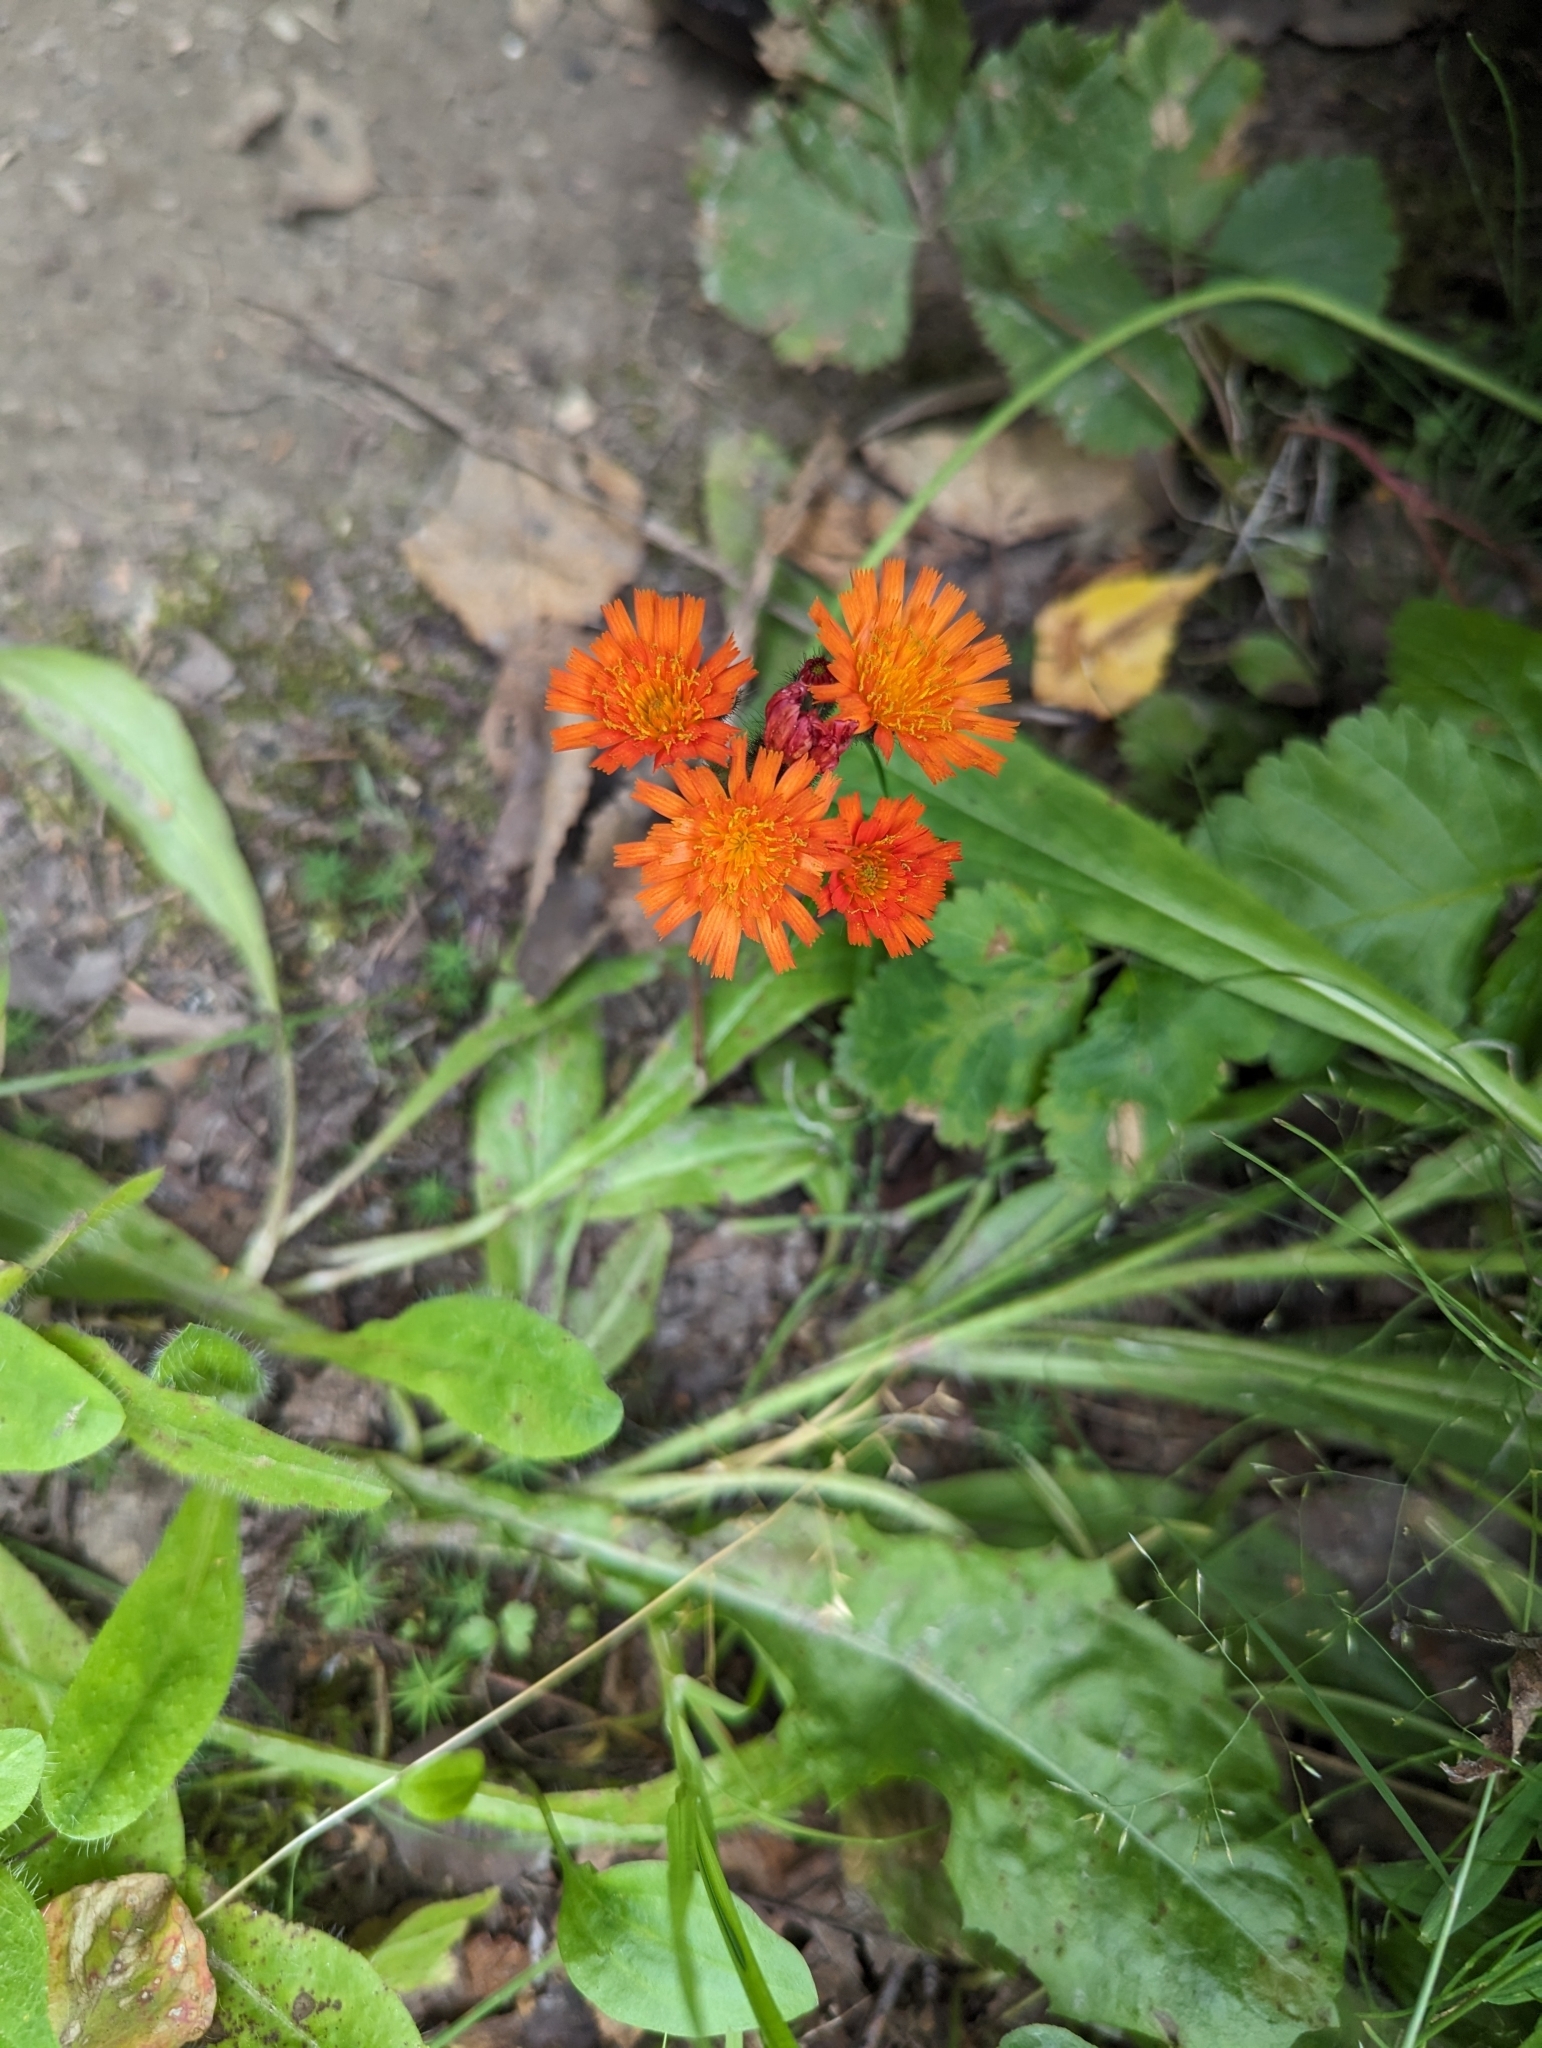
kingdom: Plantae
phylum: Tracheophyta
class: Magnoliopsida
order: Asterales
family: Asteraceae
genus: Pilosella
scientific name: Pilosella aurantiaca
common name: Fox-and-cubs
